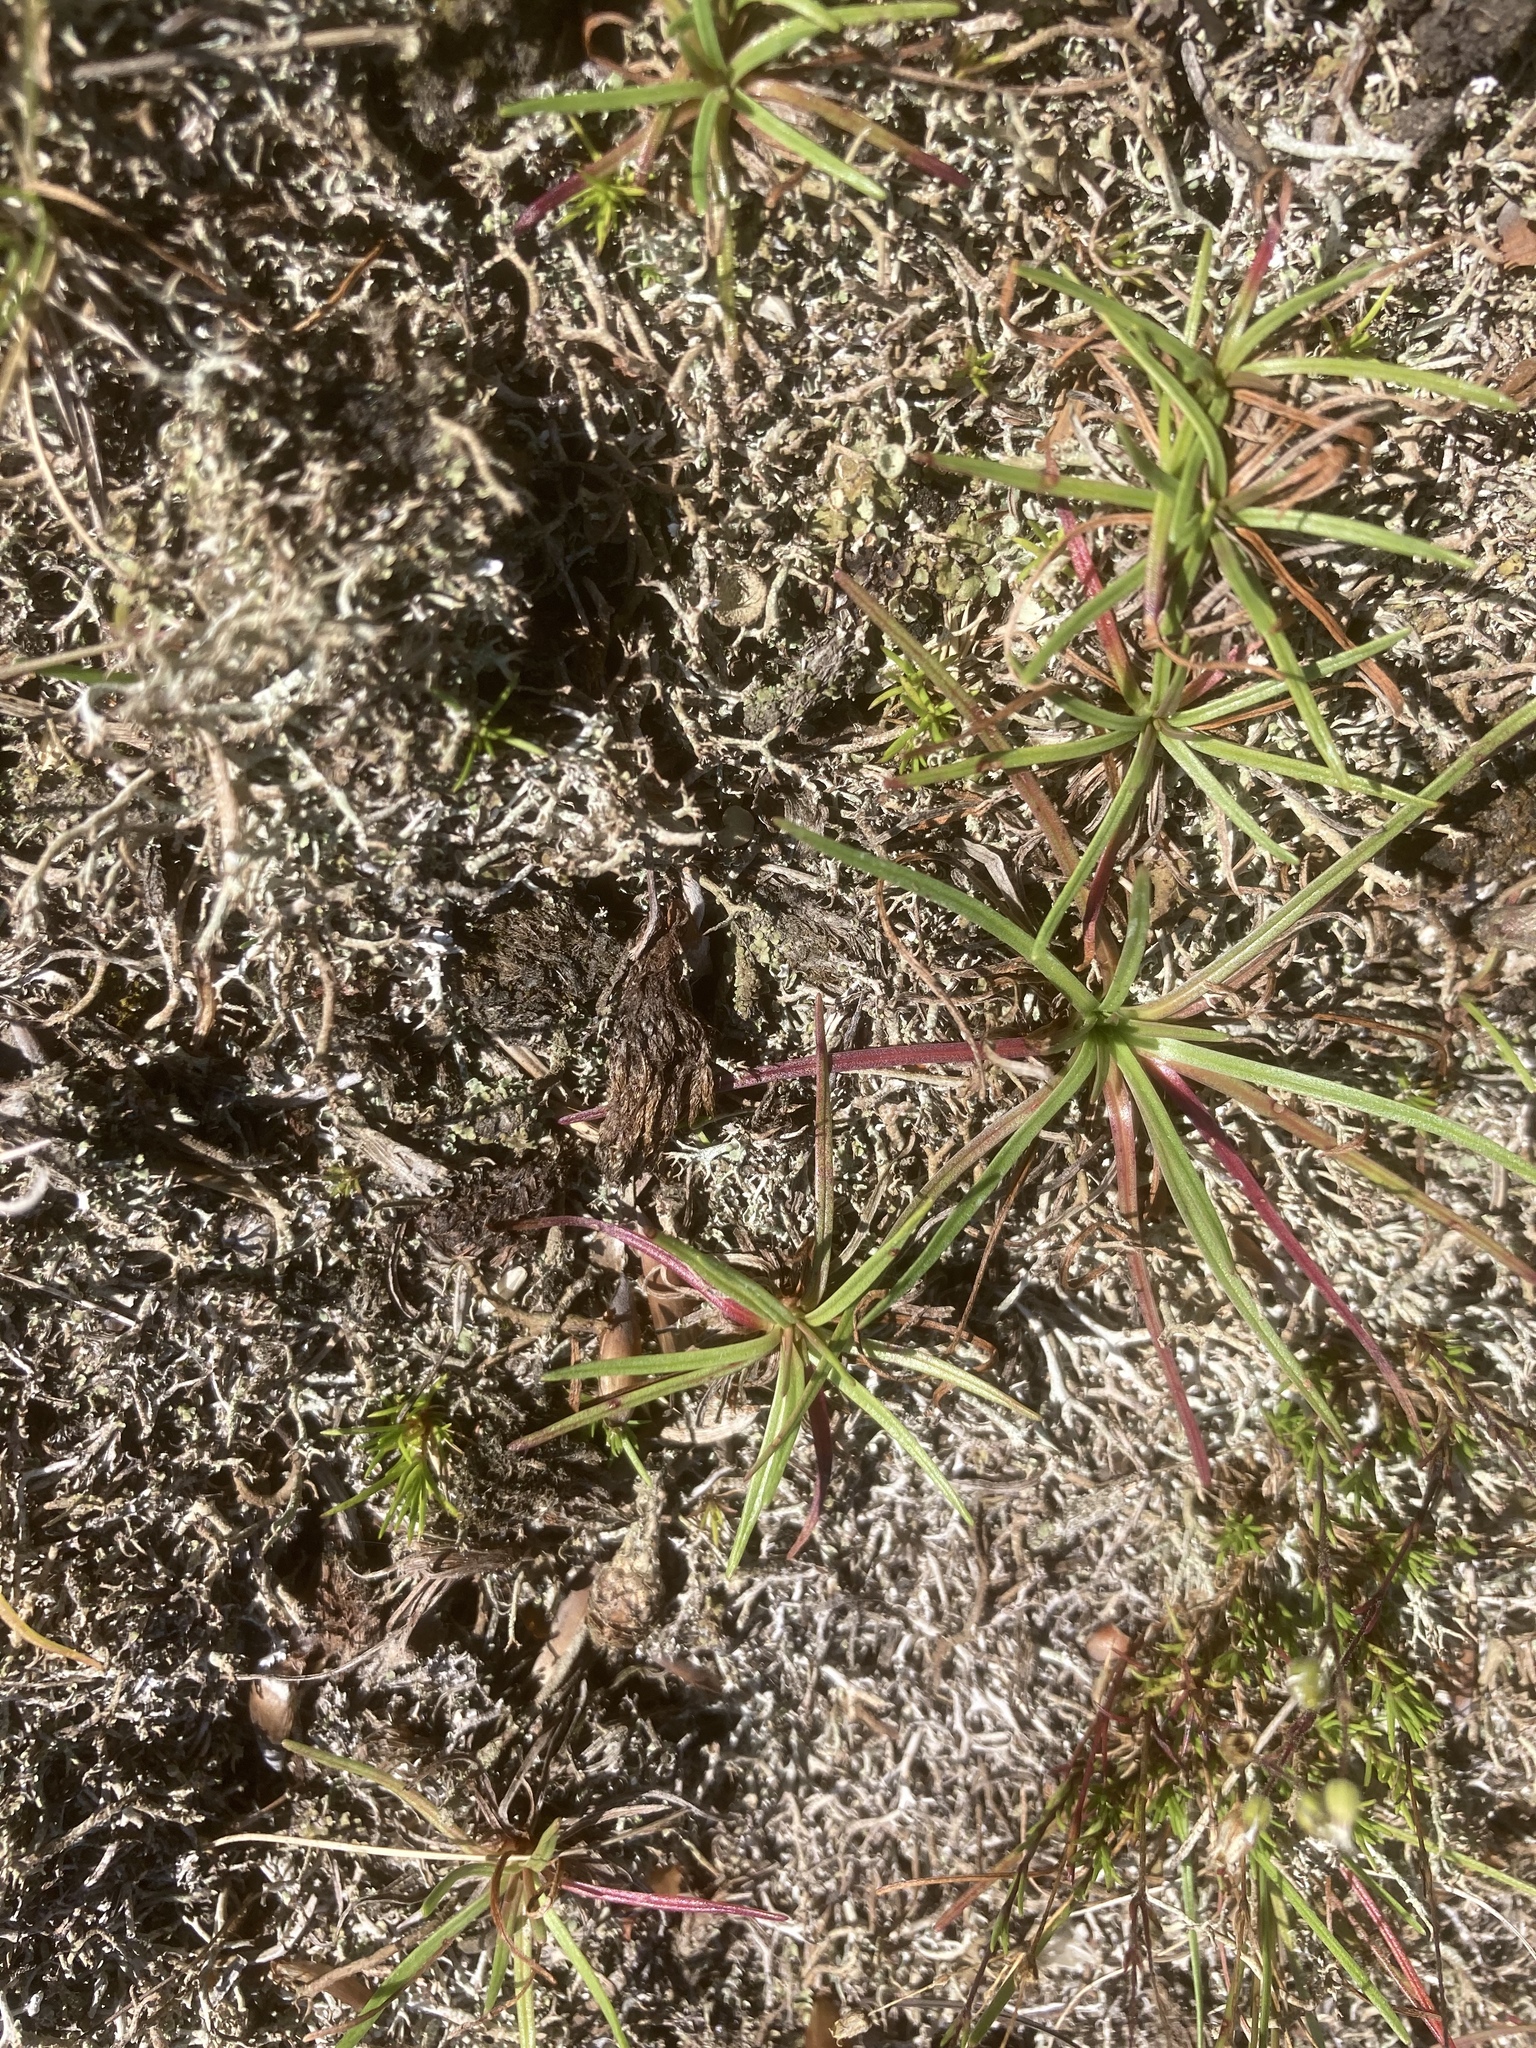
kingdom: Plantae
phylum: Tracheophyta
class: Magnoliopsida
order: Caryophyllales
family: Plumbaginaceae
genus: Armeria
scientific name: Armeria maritima
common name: Thrift
